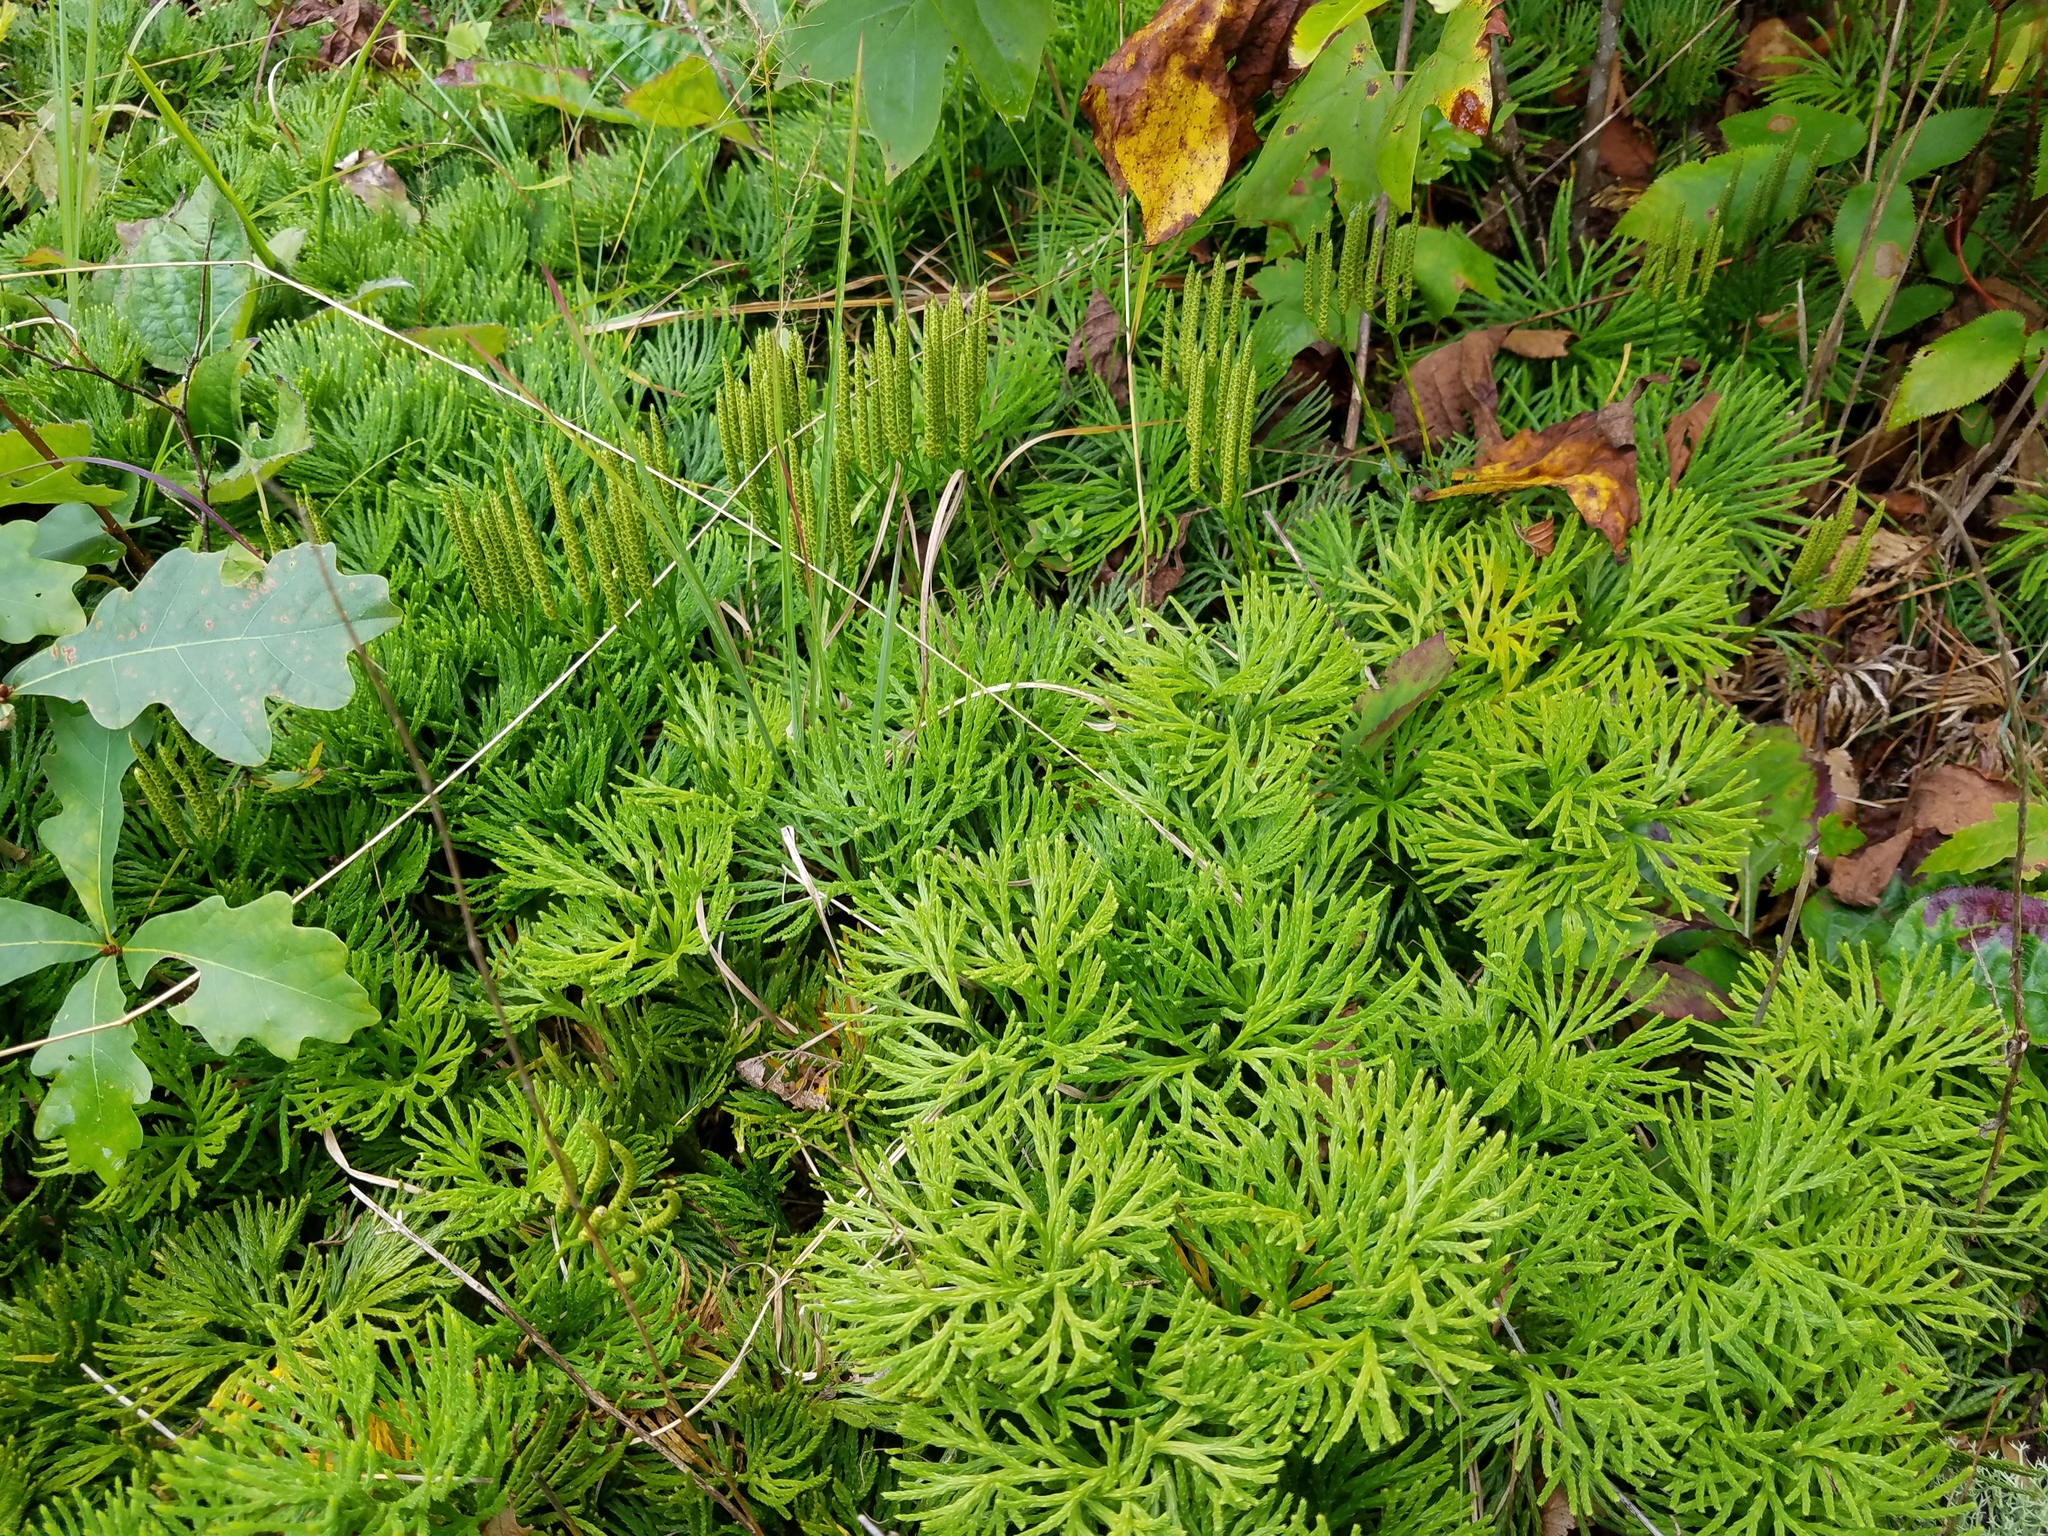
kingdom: Plantae
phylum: Tracheophyta
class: Lycopodiopsida
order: Lycopodiales
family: Lycopodiaceae
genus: Diphasiastrum
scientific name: Diphasiastrum digitatum
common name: Southern running-pine
